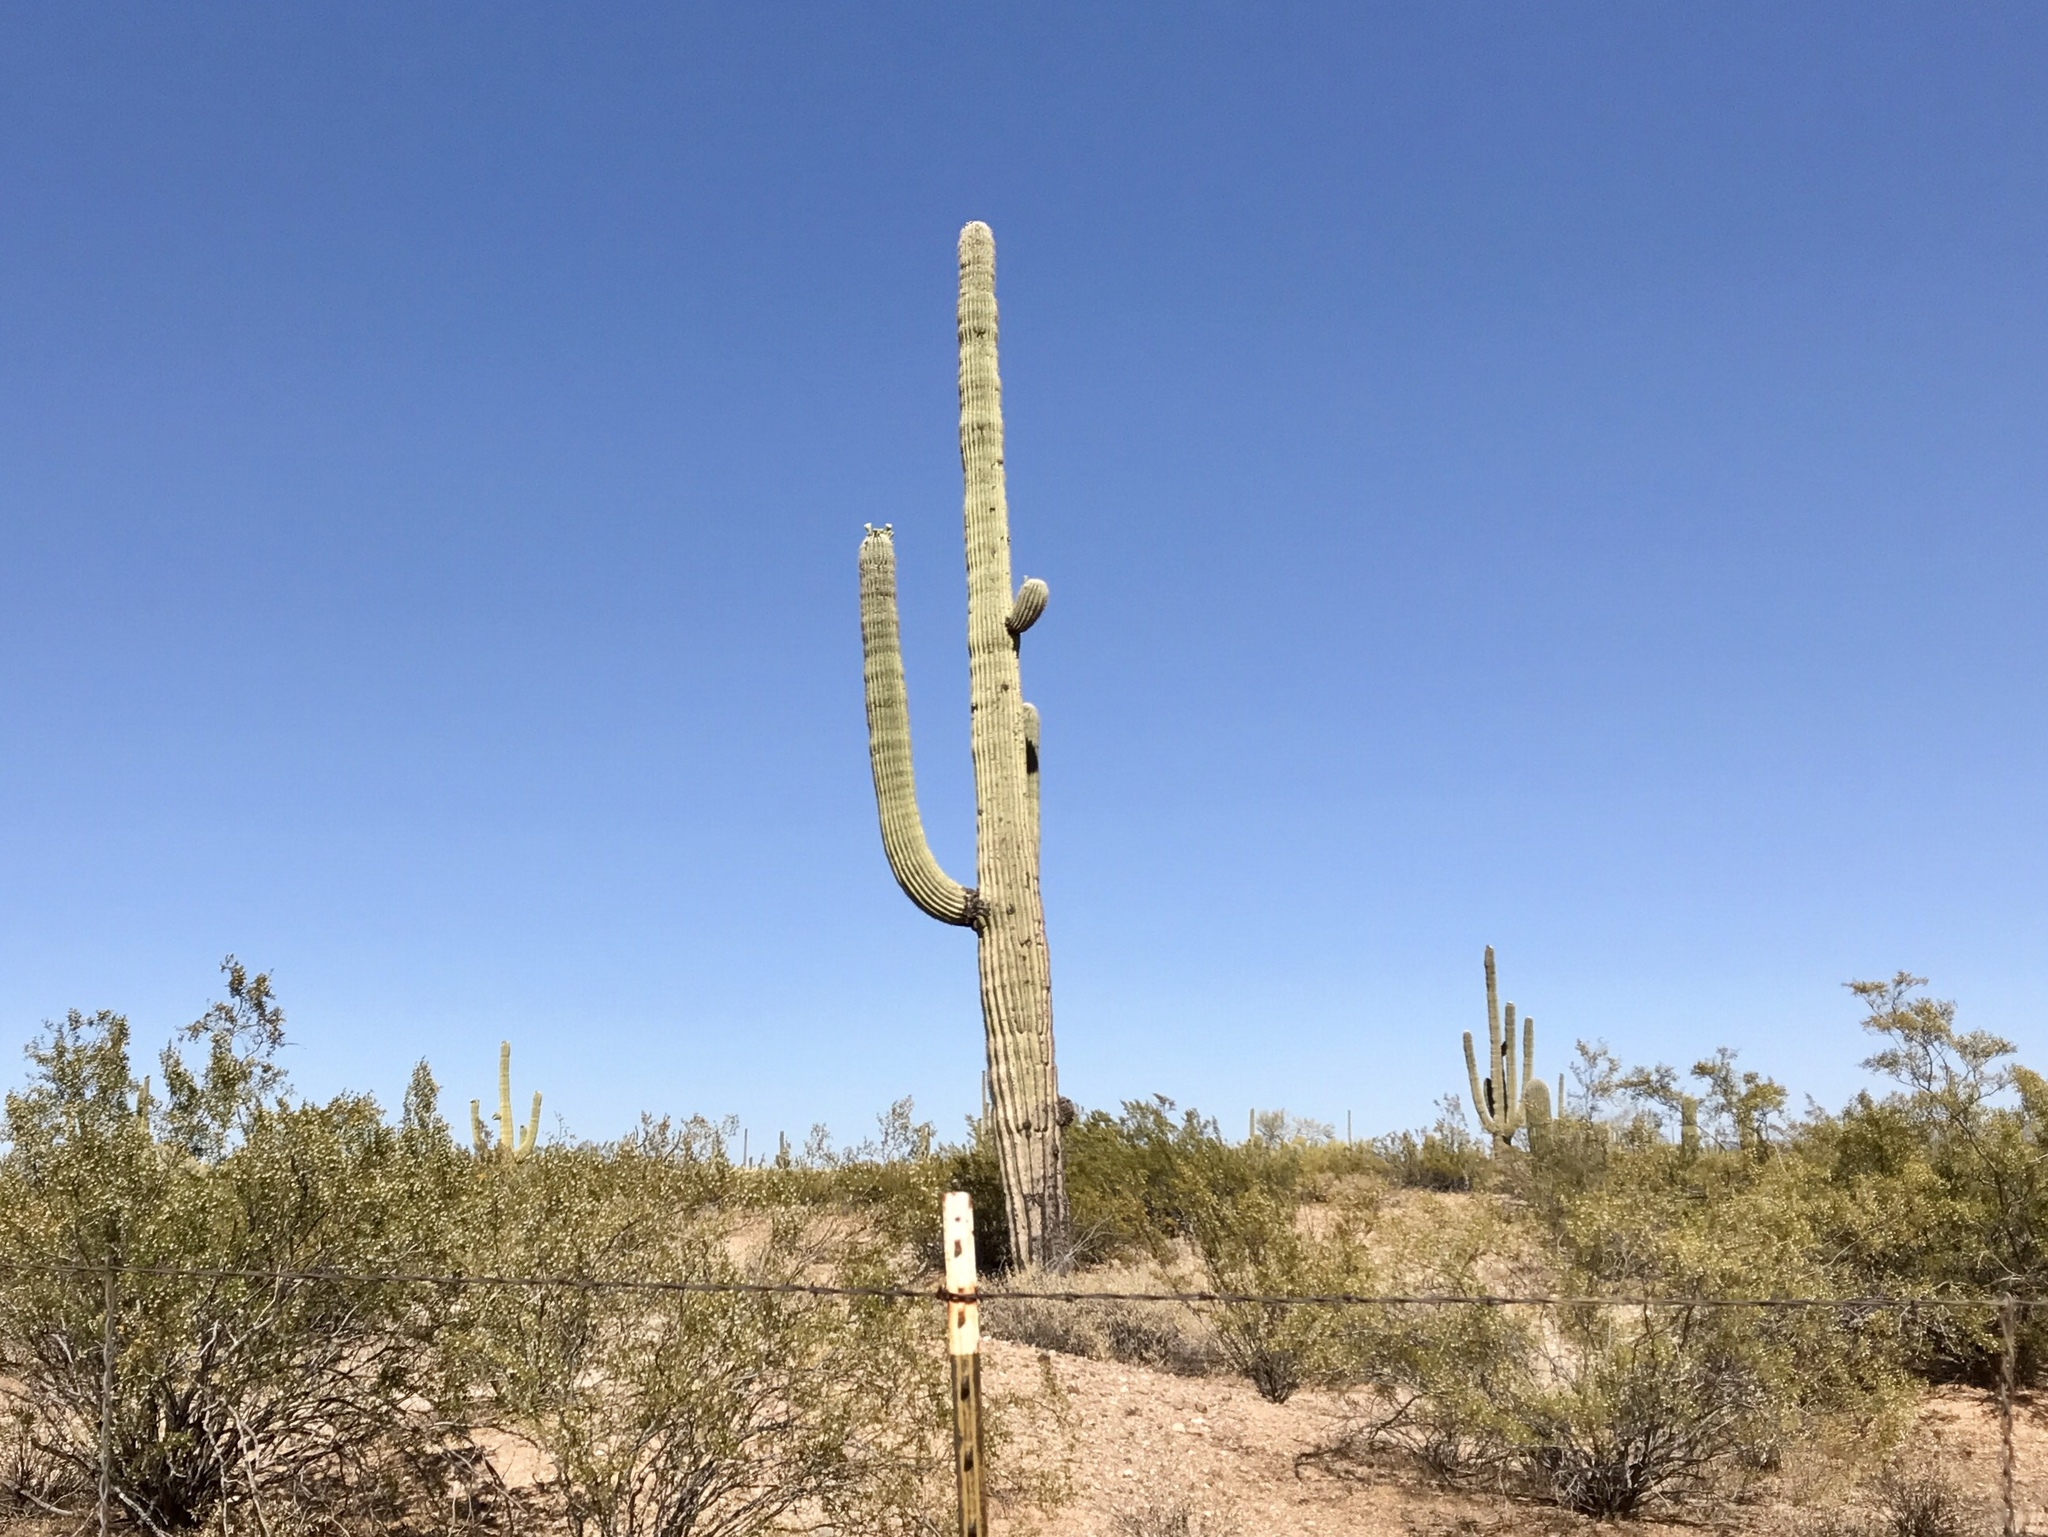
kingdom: Plantae
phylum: Tracheophyta
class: Magnoliopsida
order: Caryophyllales
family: Cactaceae
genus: Carnegiea
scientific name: Carnegiea gigantea
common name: Saguaro
